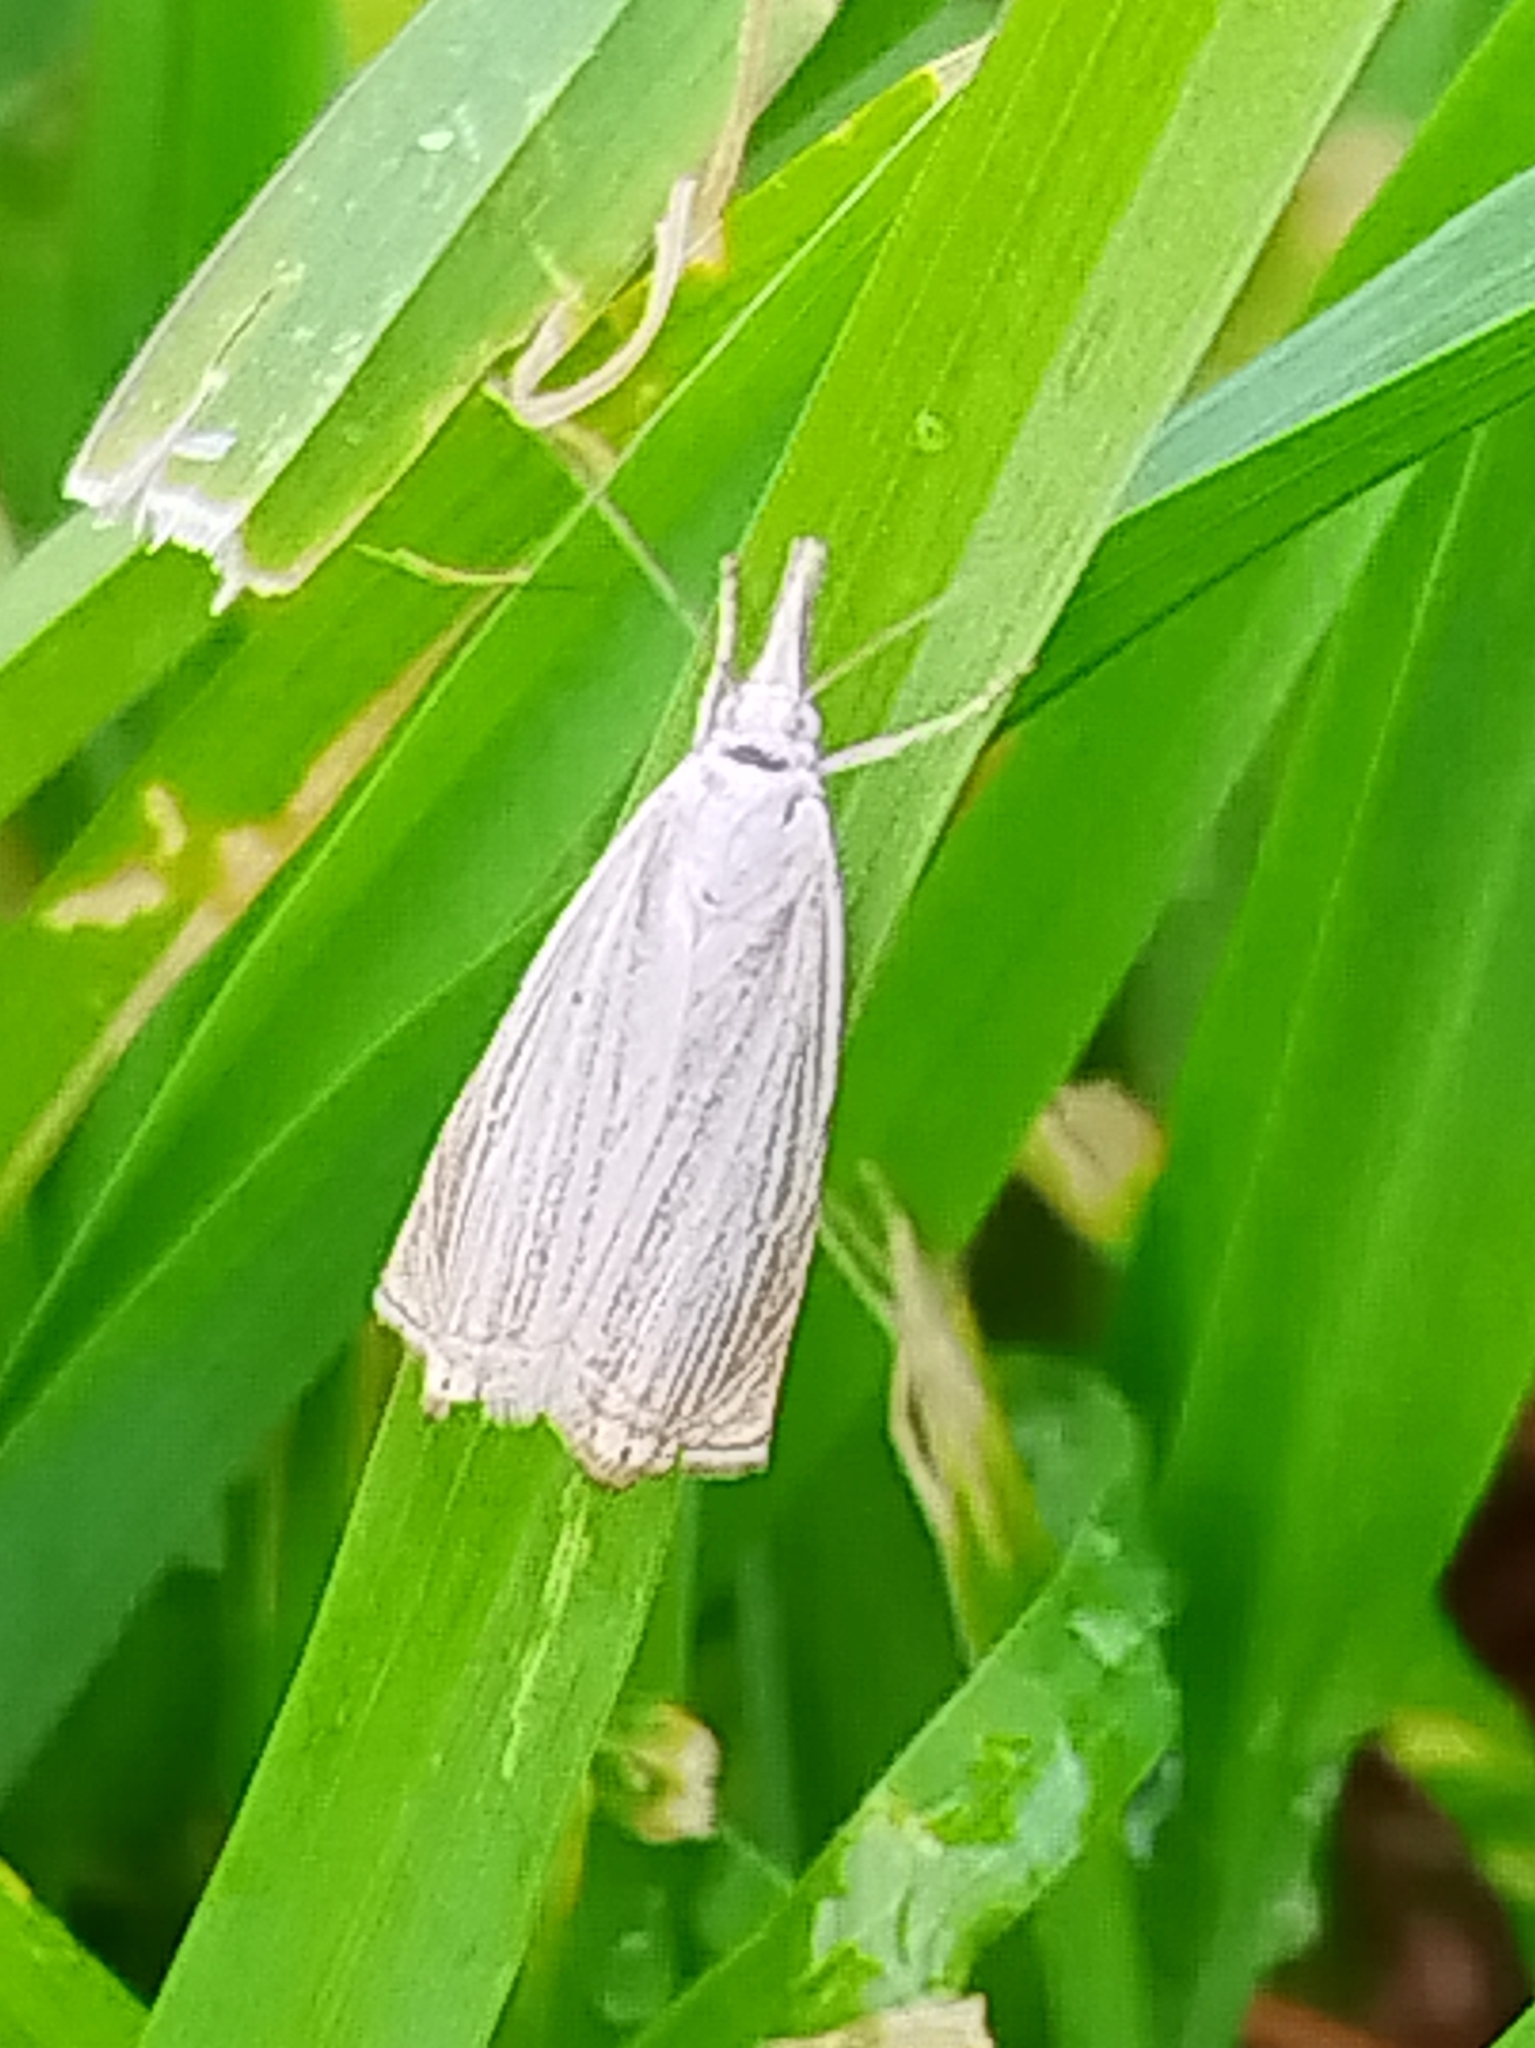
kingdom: Animalia
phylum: Arthropoda
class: Insecta
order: Lepidoptera
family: Crambidae
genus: Chrysoteuchia
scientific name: Chrysoteuchia culmella
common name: Garden grass-veneer
